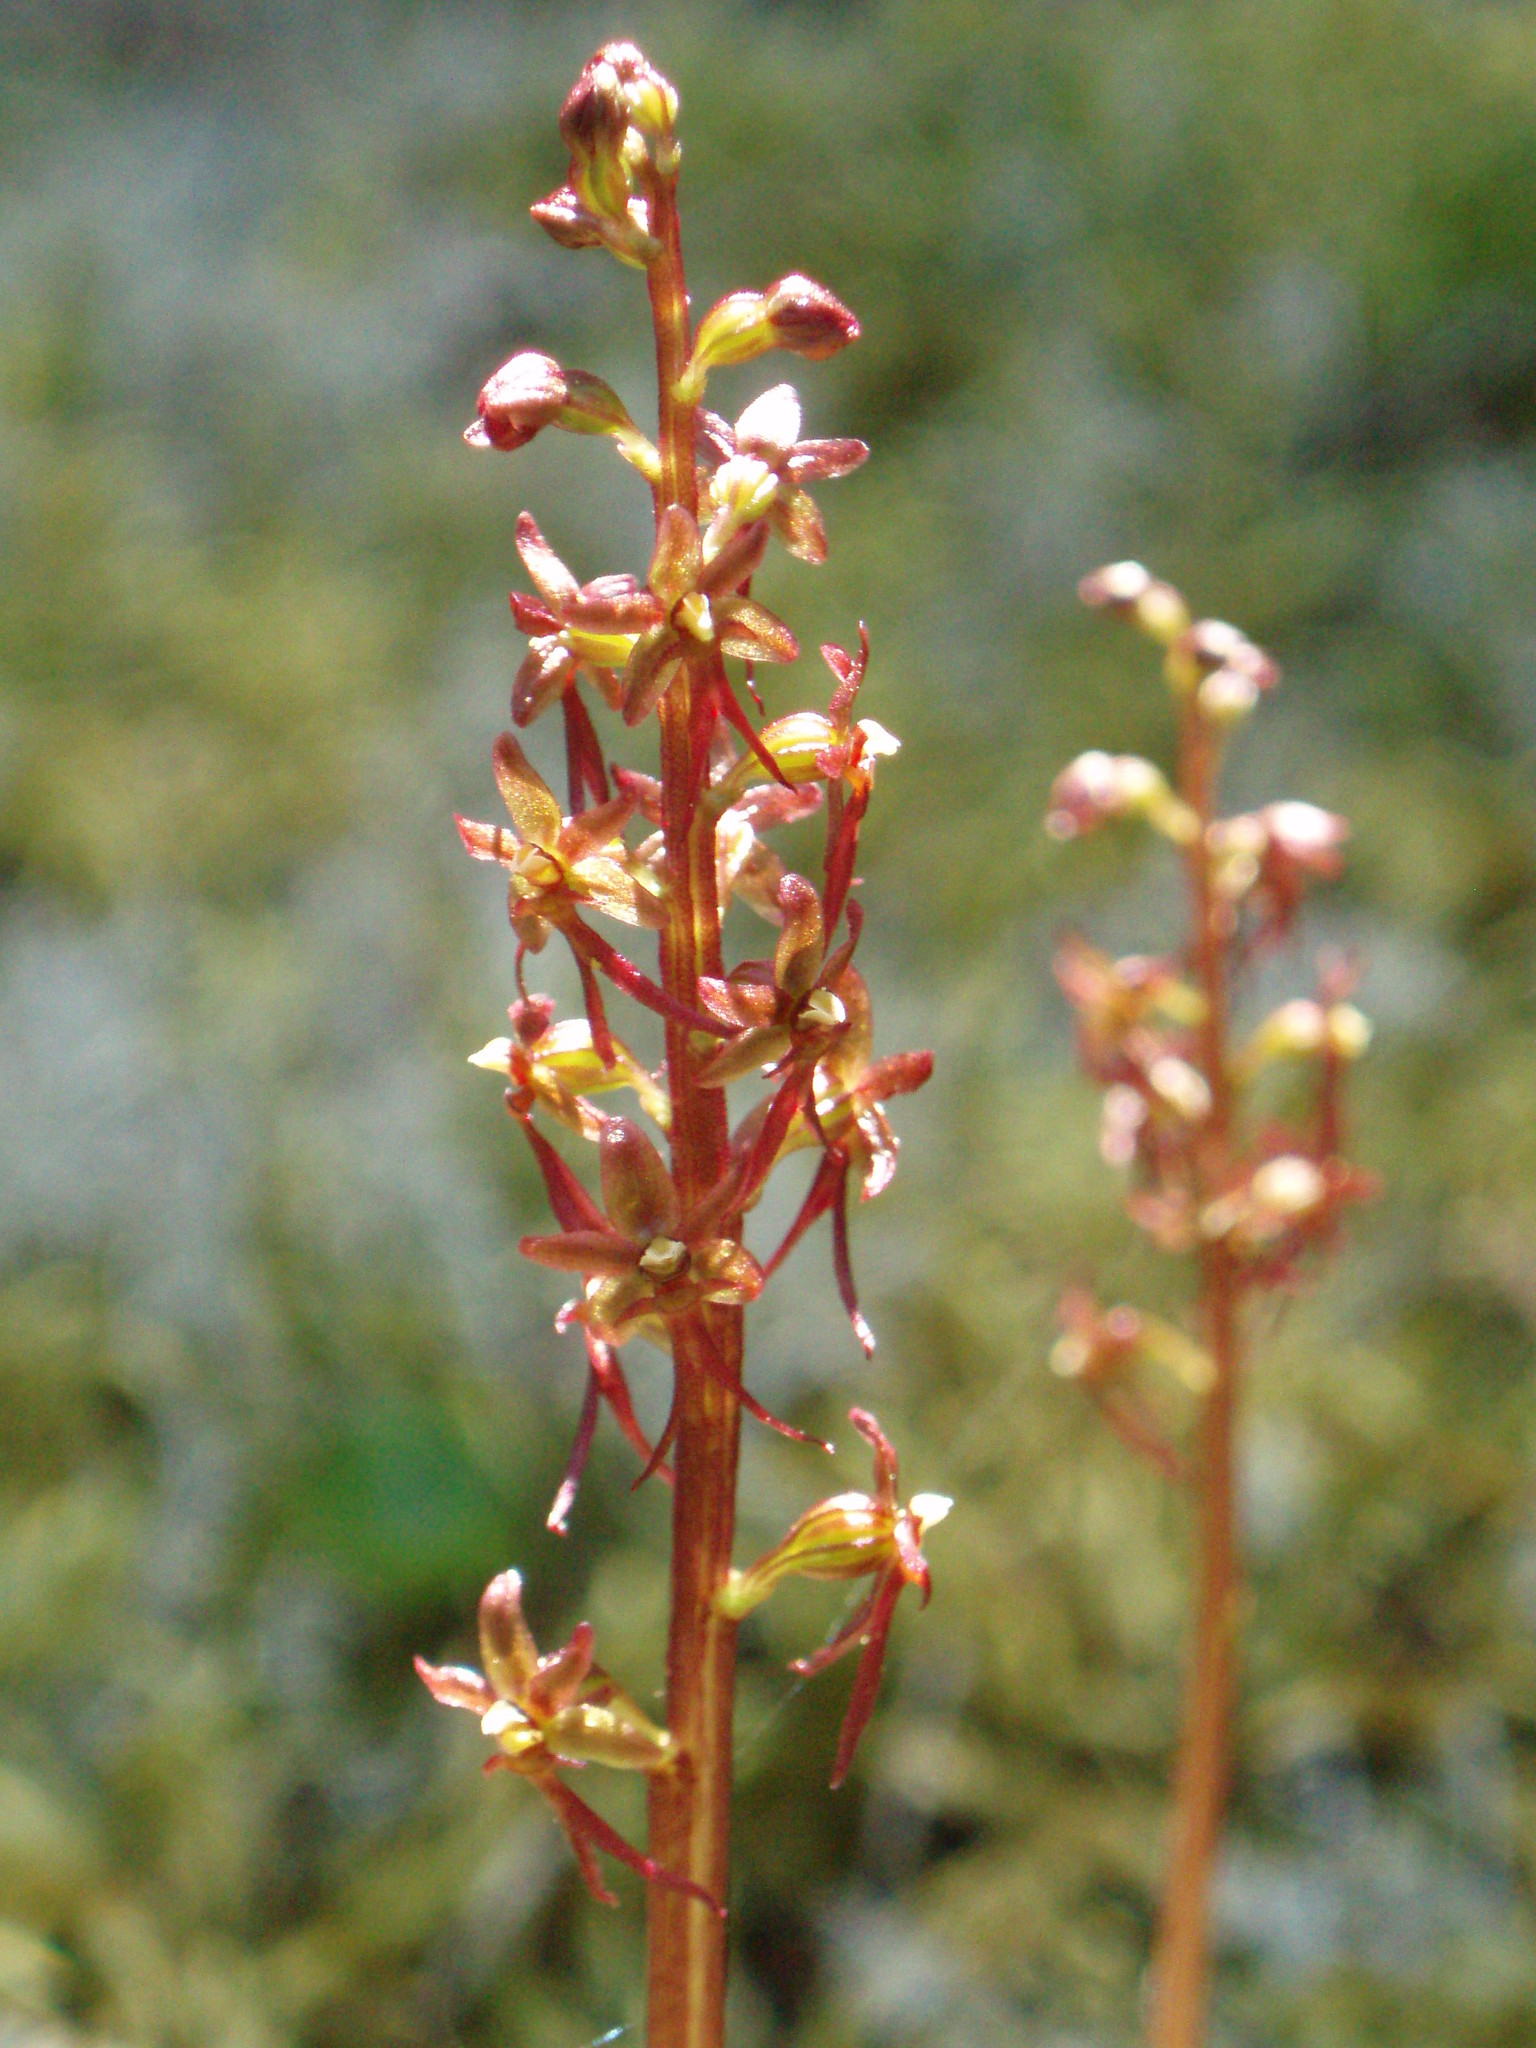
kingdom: Plantae
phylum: Tracheophyta
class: Liliopsida
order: Asparagales
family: Orchidaceae
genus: Neottia
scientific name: Neottia cordata
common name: Lesser twayblade
